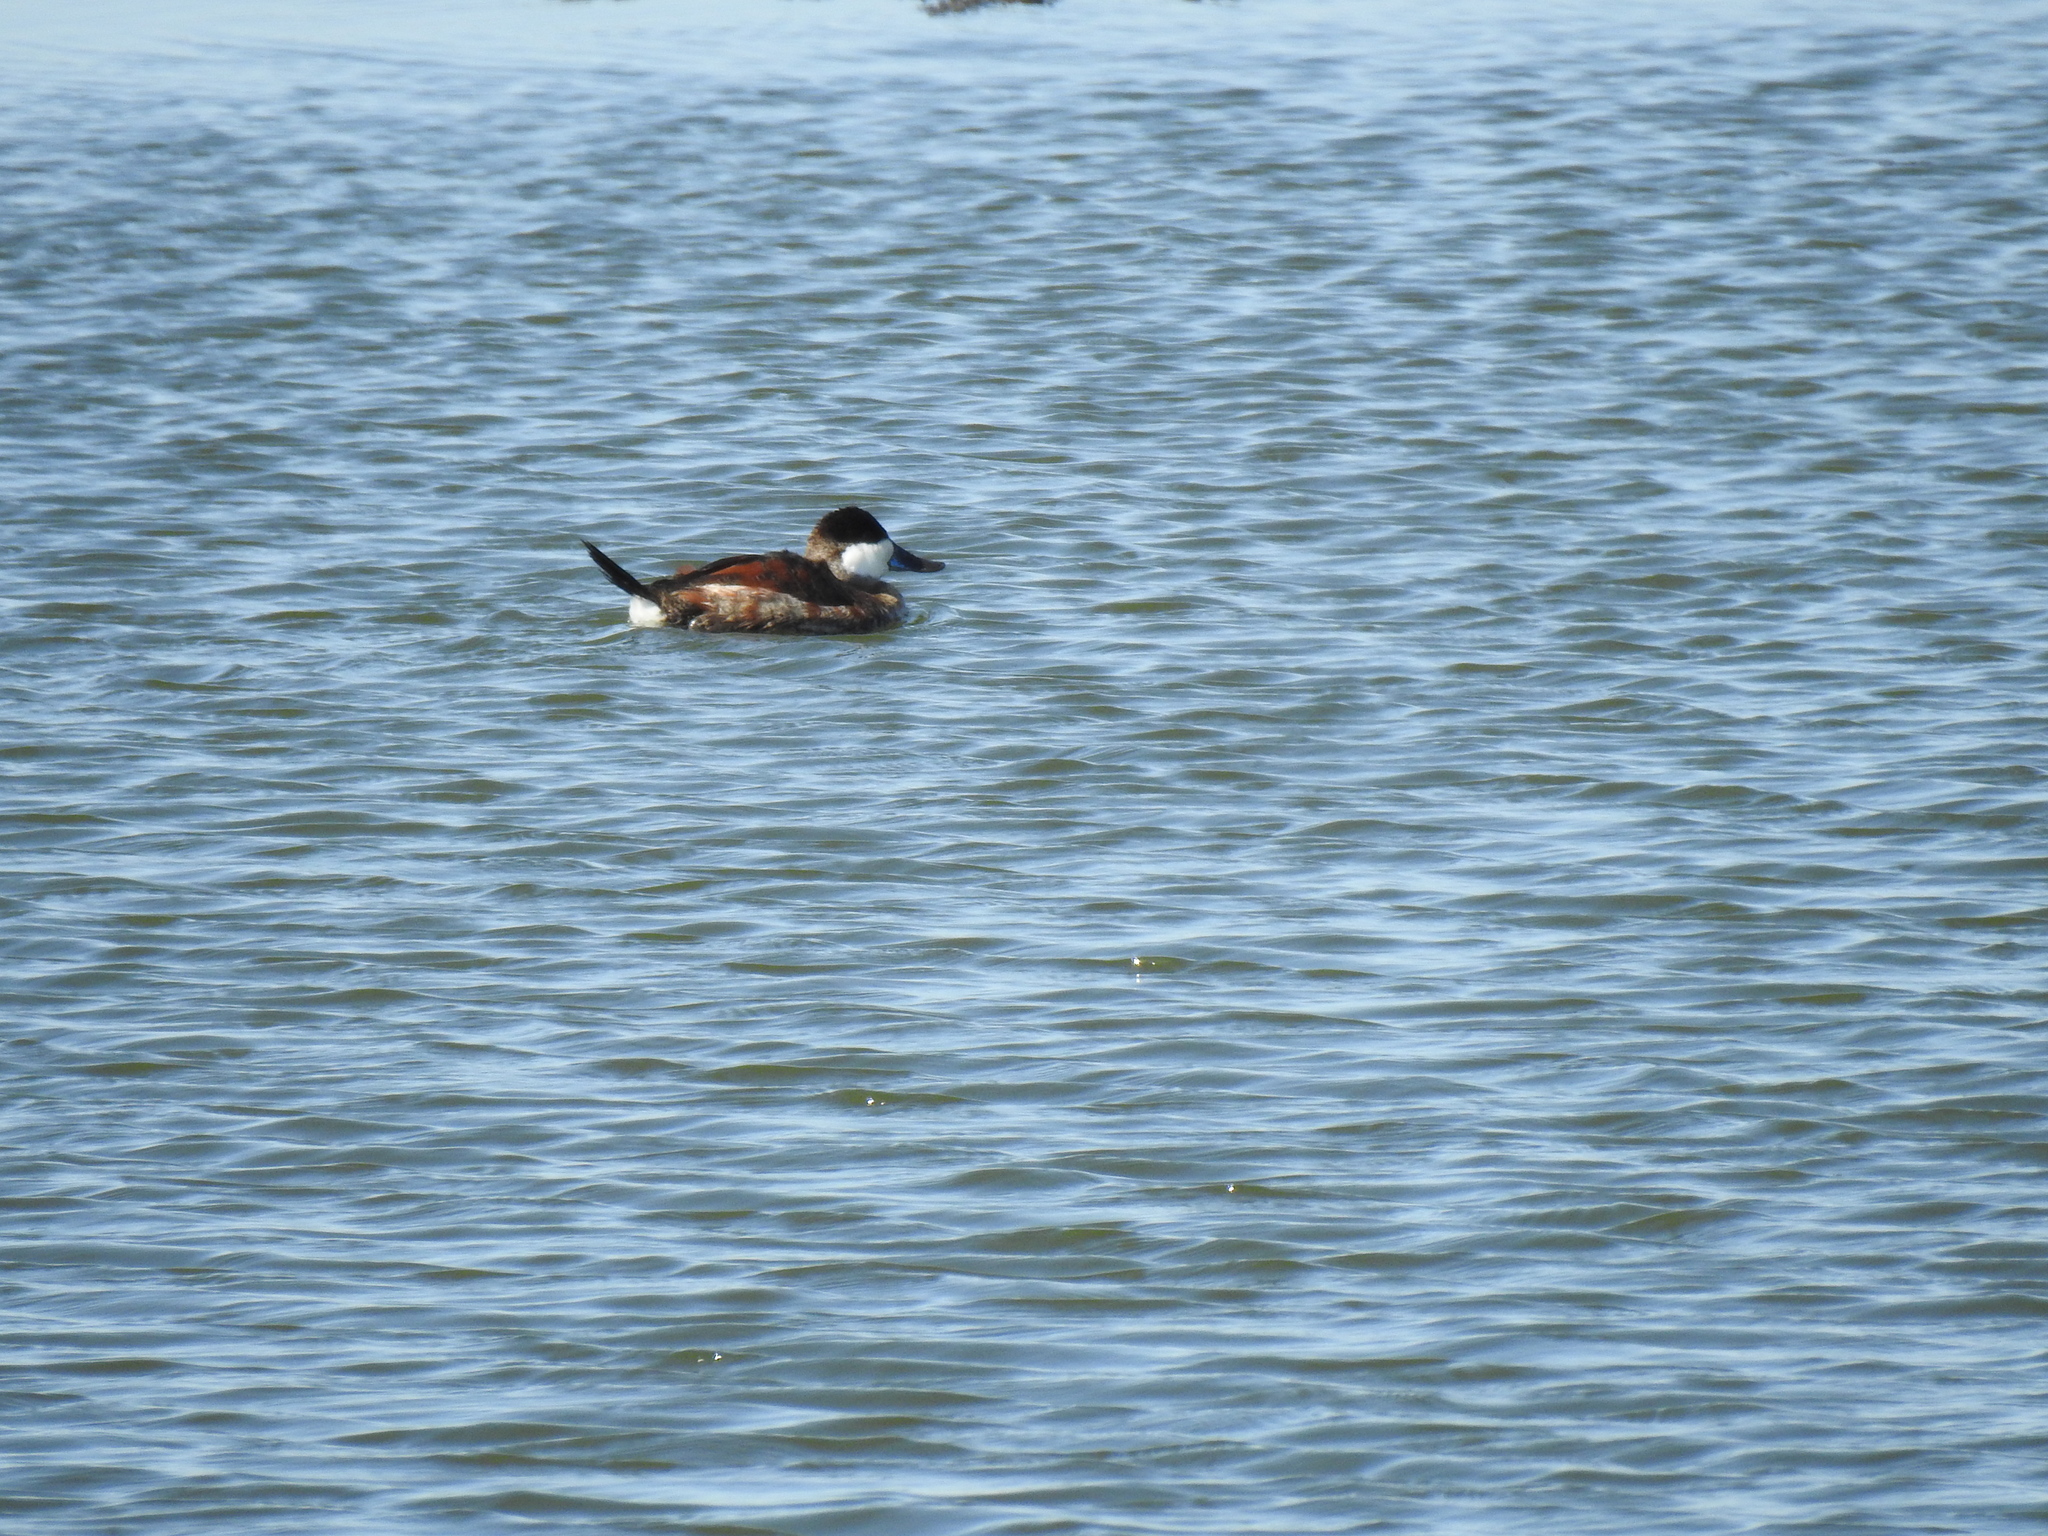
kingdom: Animalia
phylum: Chordata
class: Aves
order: Anseriformes
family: Anatidae
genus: Oxyura
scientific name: Oxyura jamaicensis
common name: Ruddy duck
